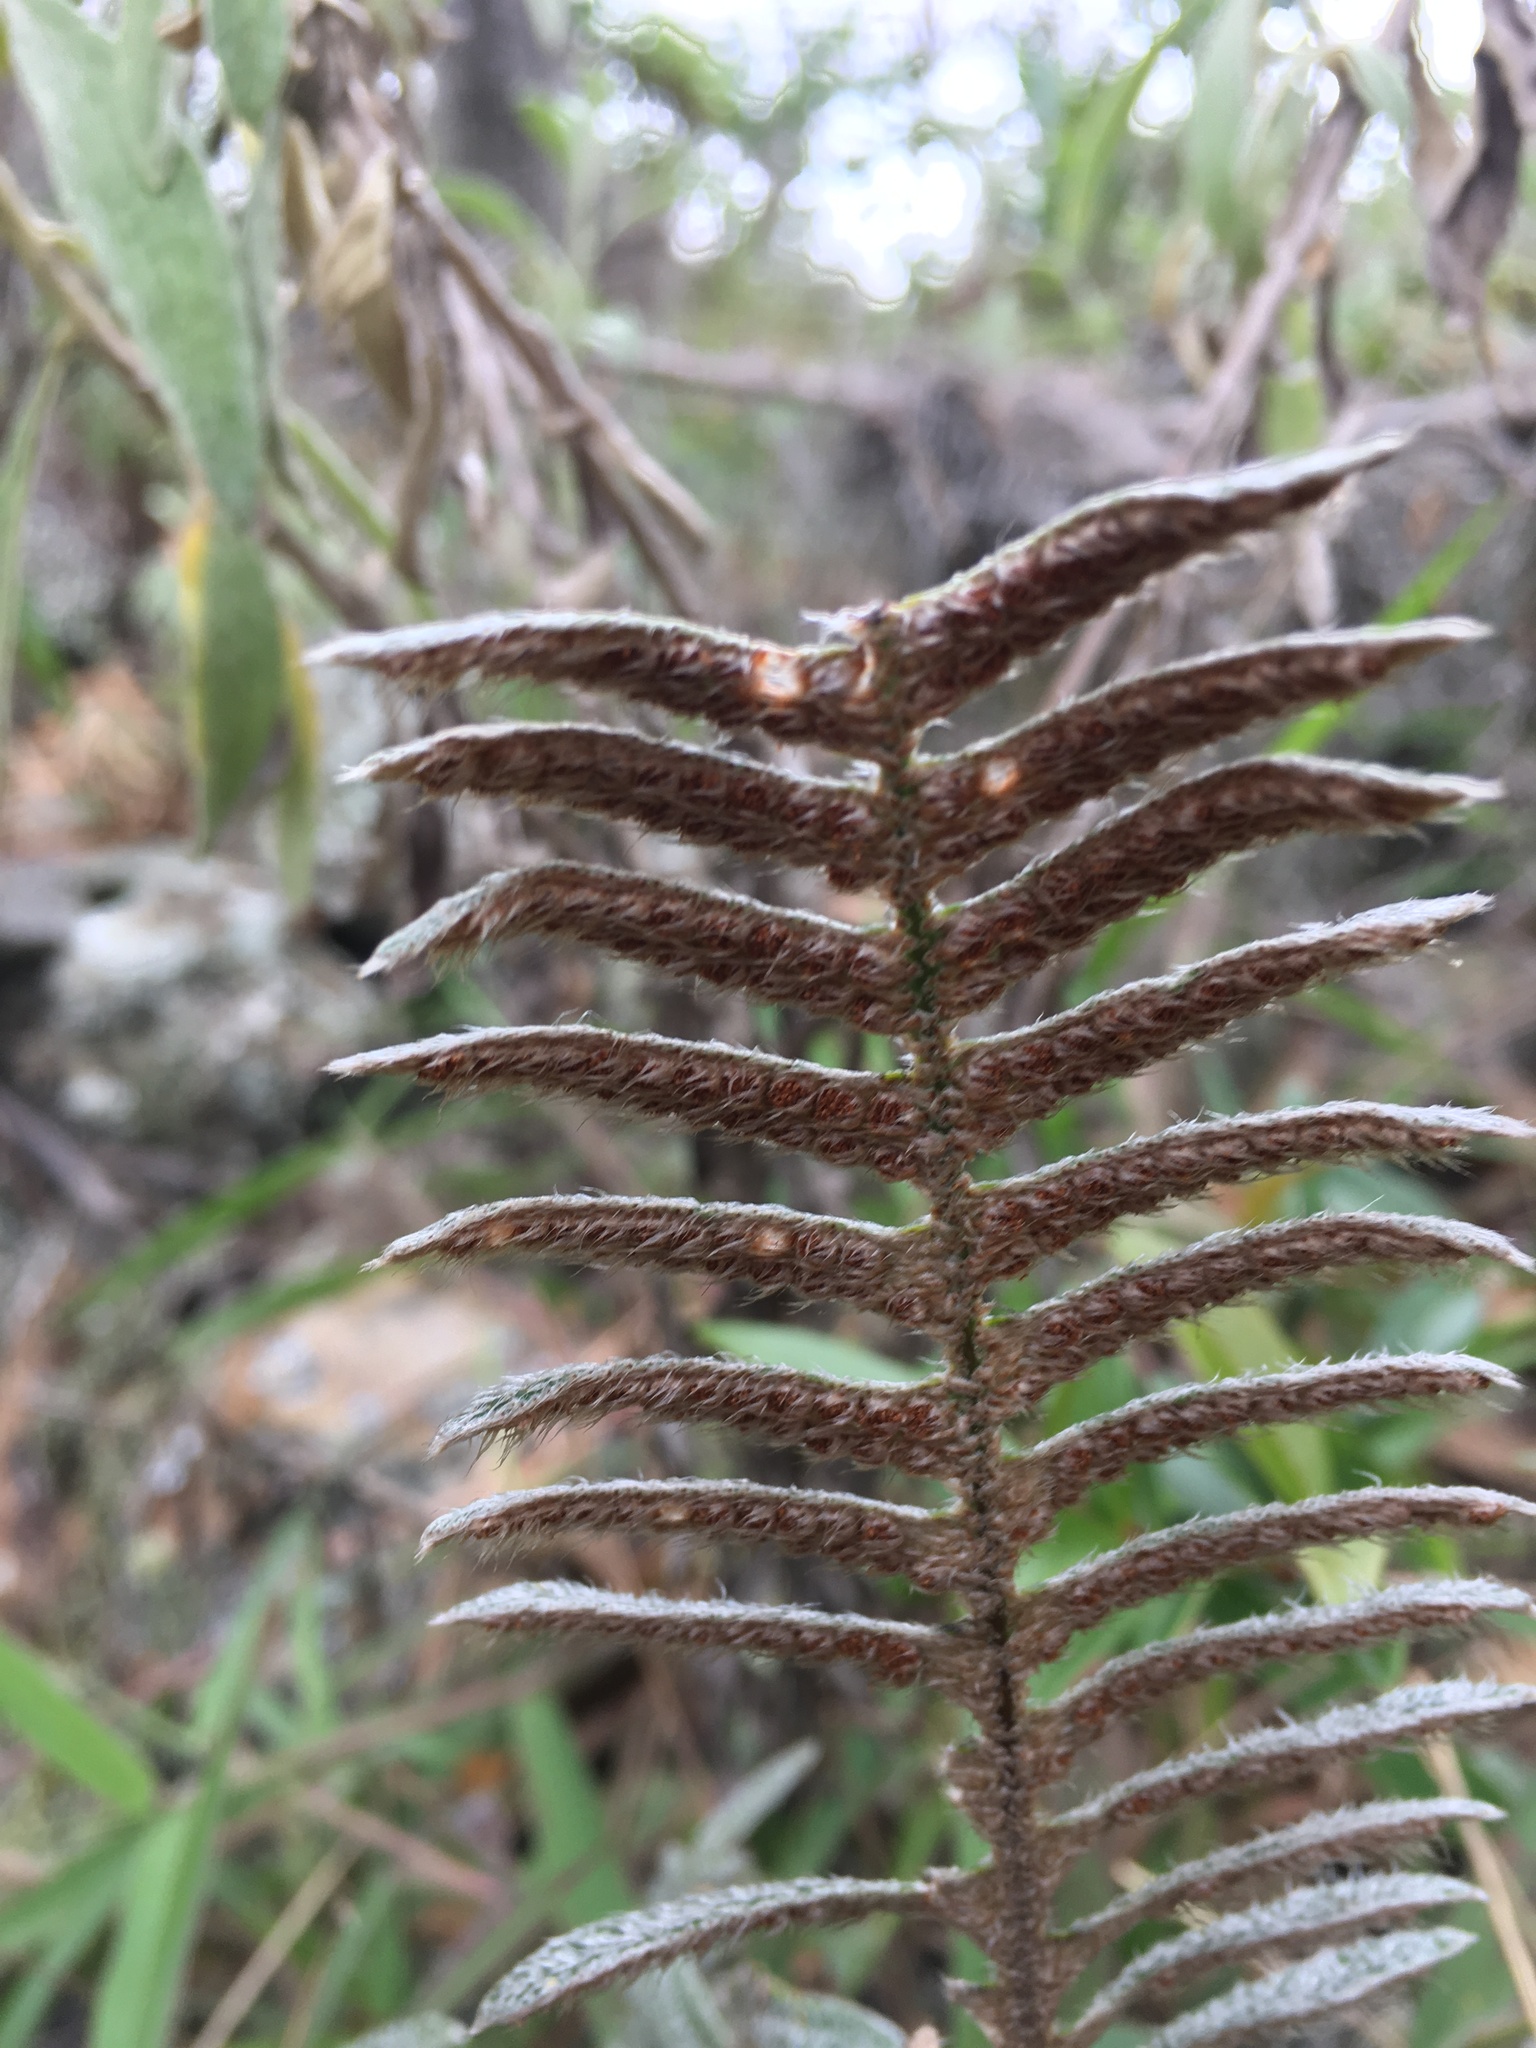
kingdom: Plantae
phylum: Tracheophyta
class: Polypodiopsida
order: Polypodiales
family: Polypodiaceae
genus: Pleopeltis
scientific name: Pleopeltis fimbriata
